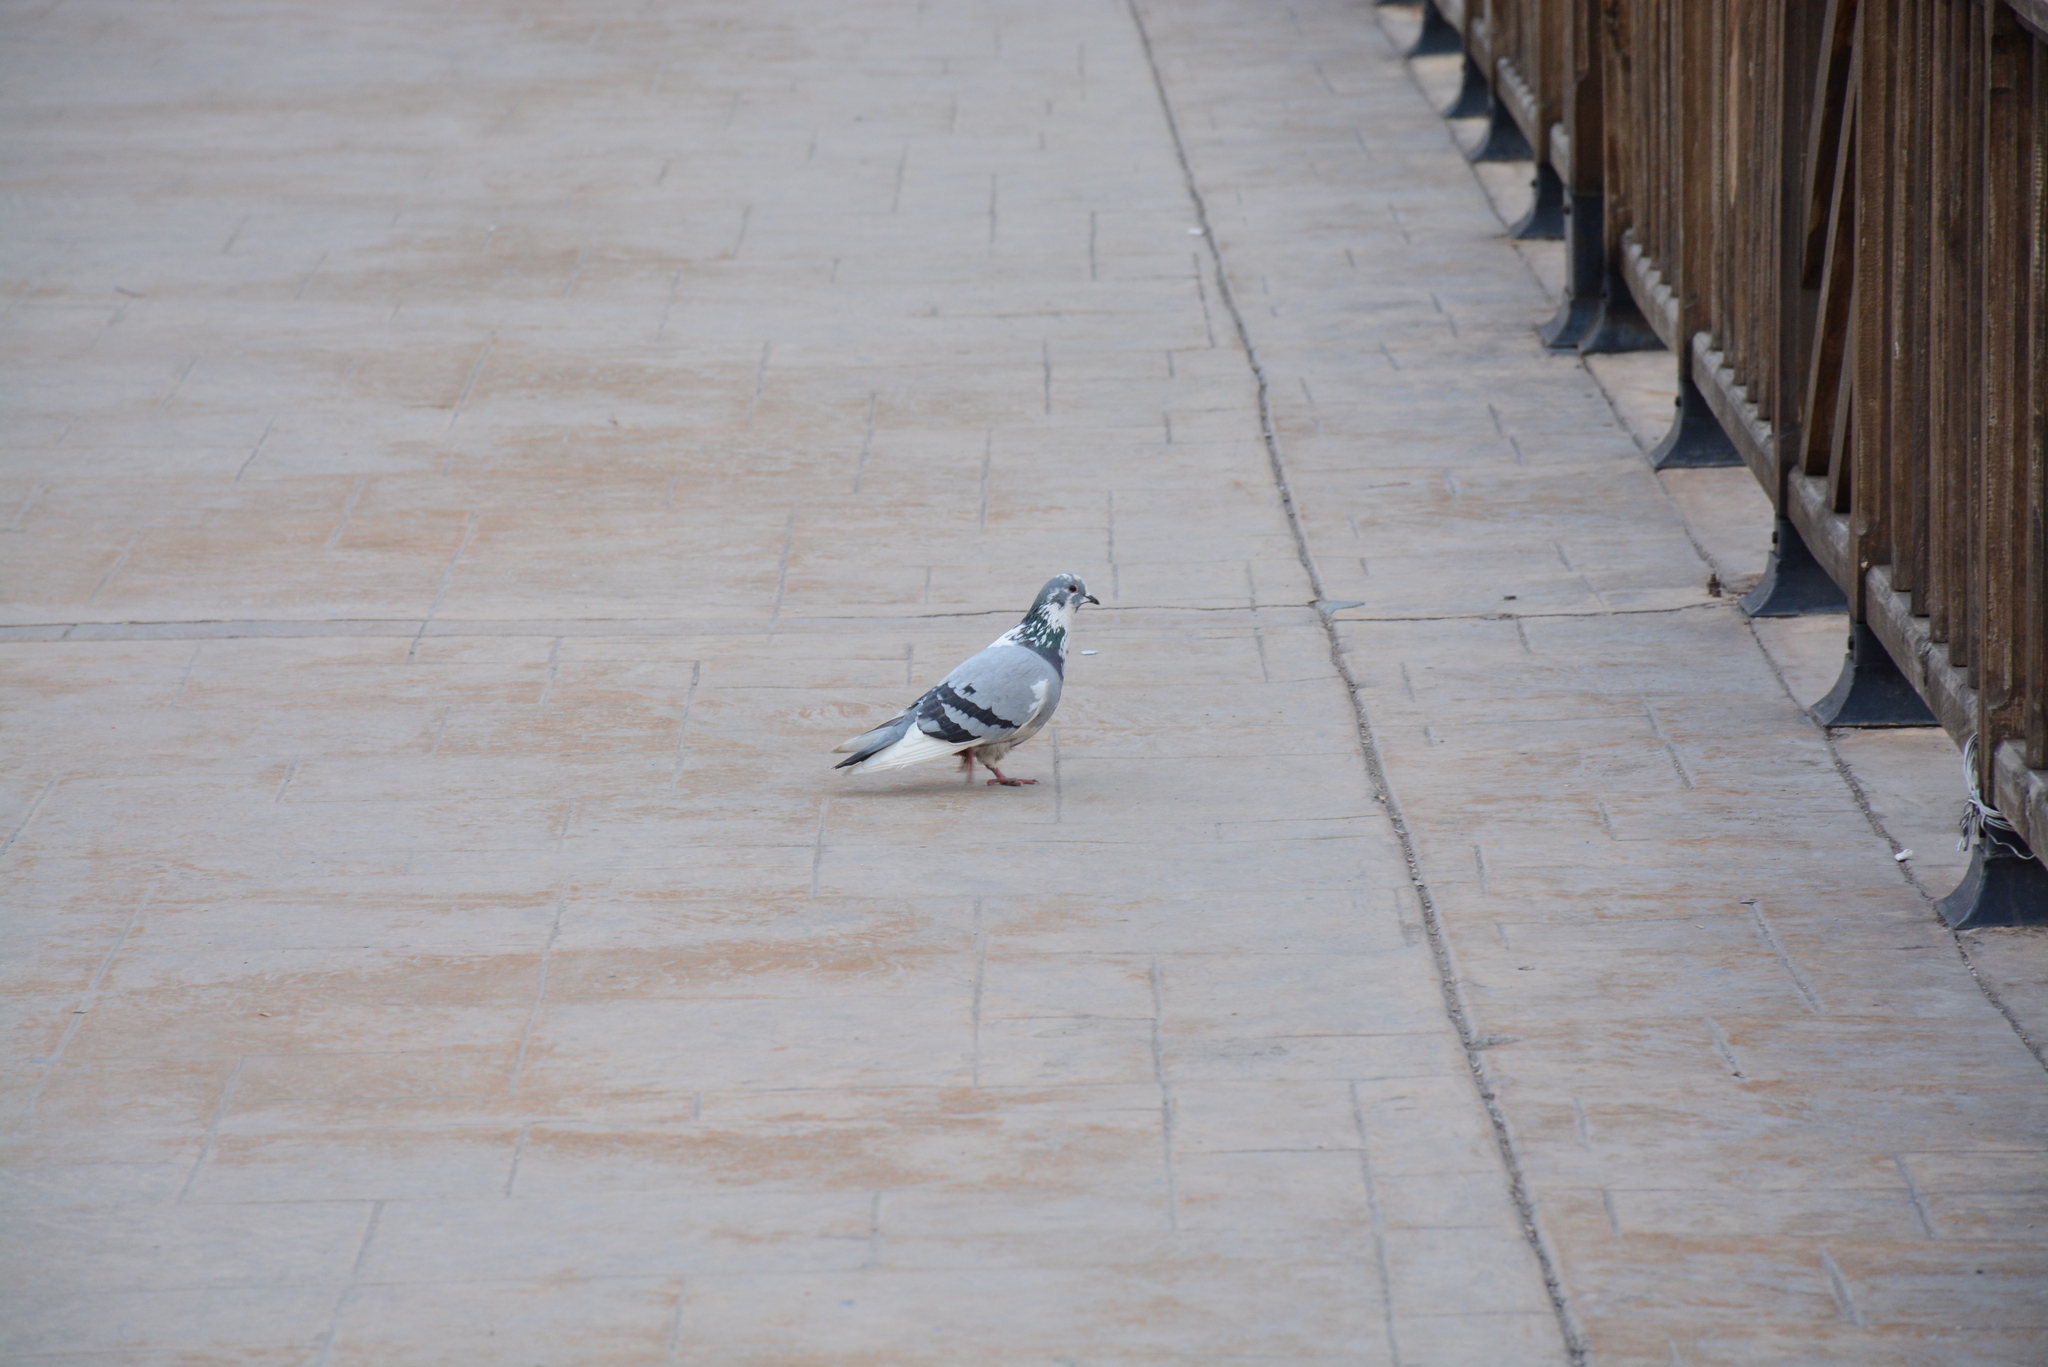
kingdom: Animalia
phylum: Chordata
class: Aves
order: Columbiformes
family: Columbidae
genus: Columba
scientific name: Columba livia
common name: Rock pigeon
